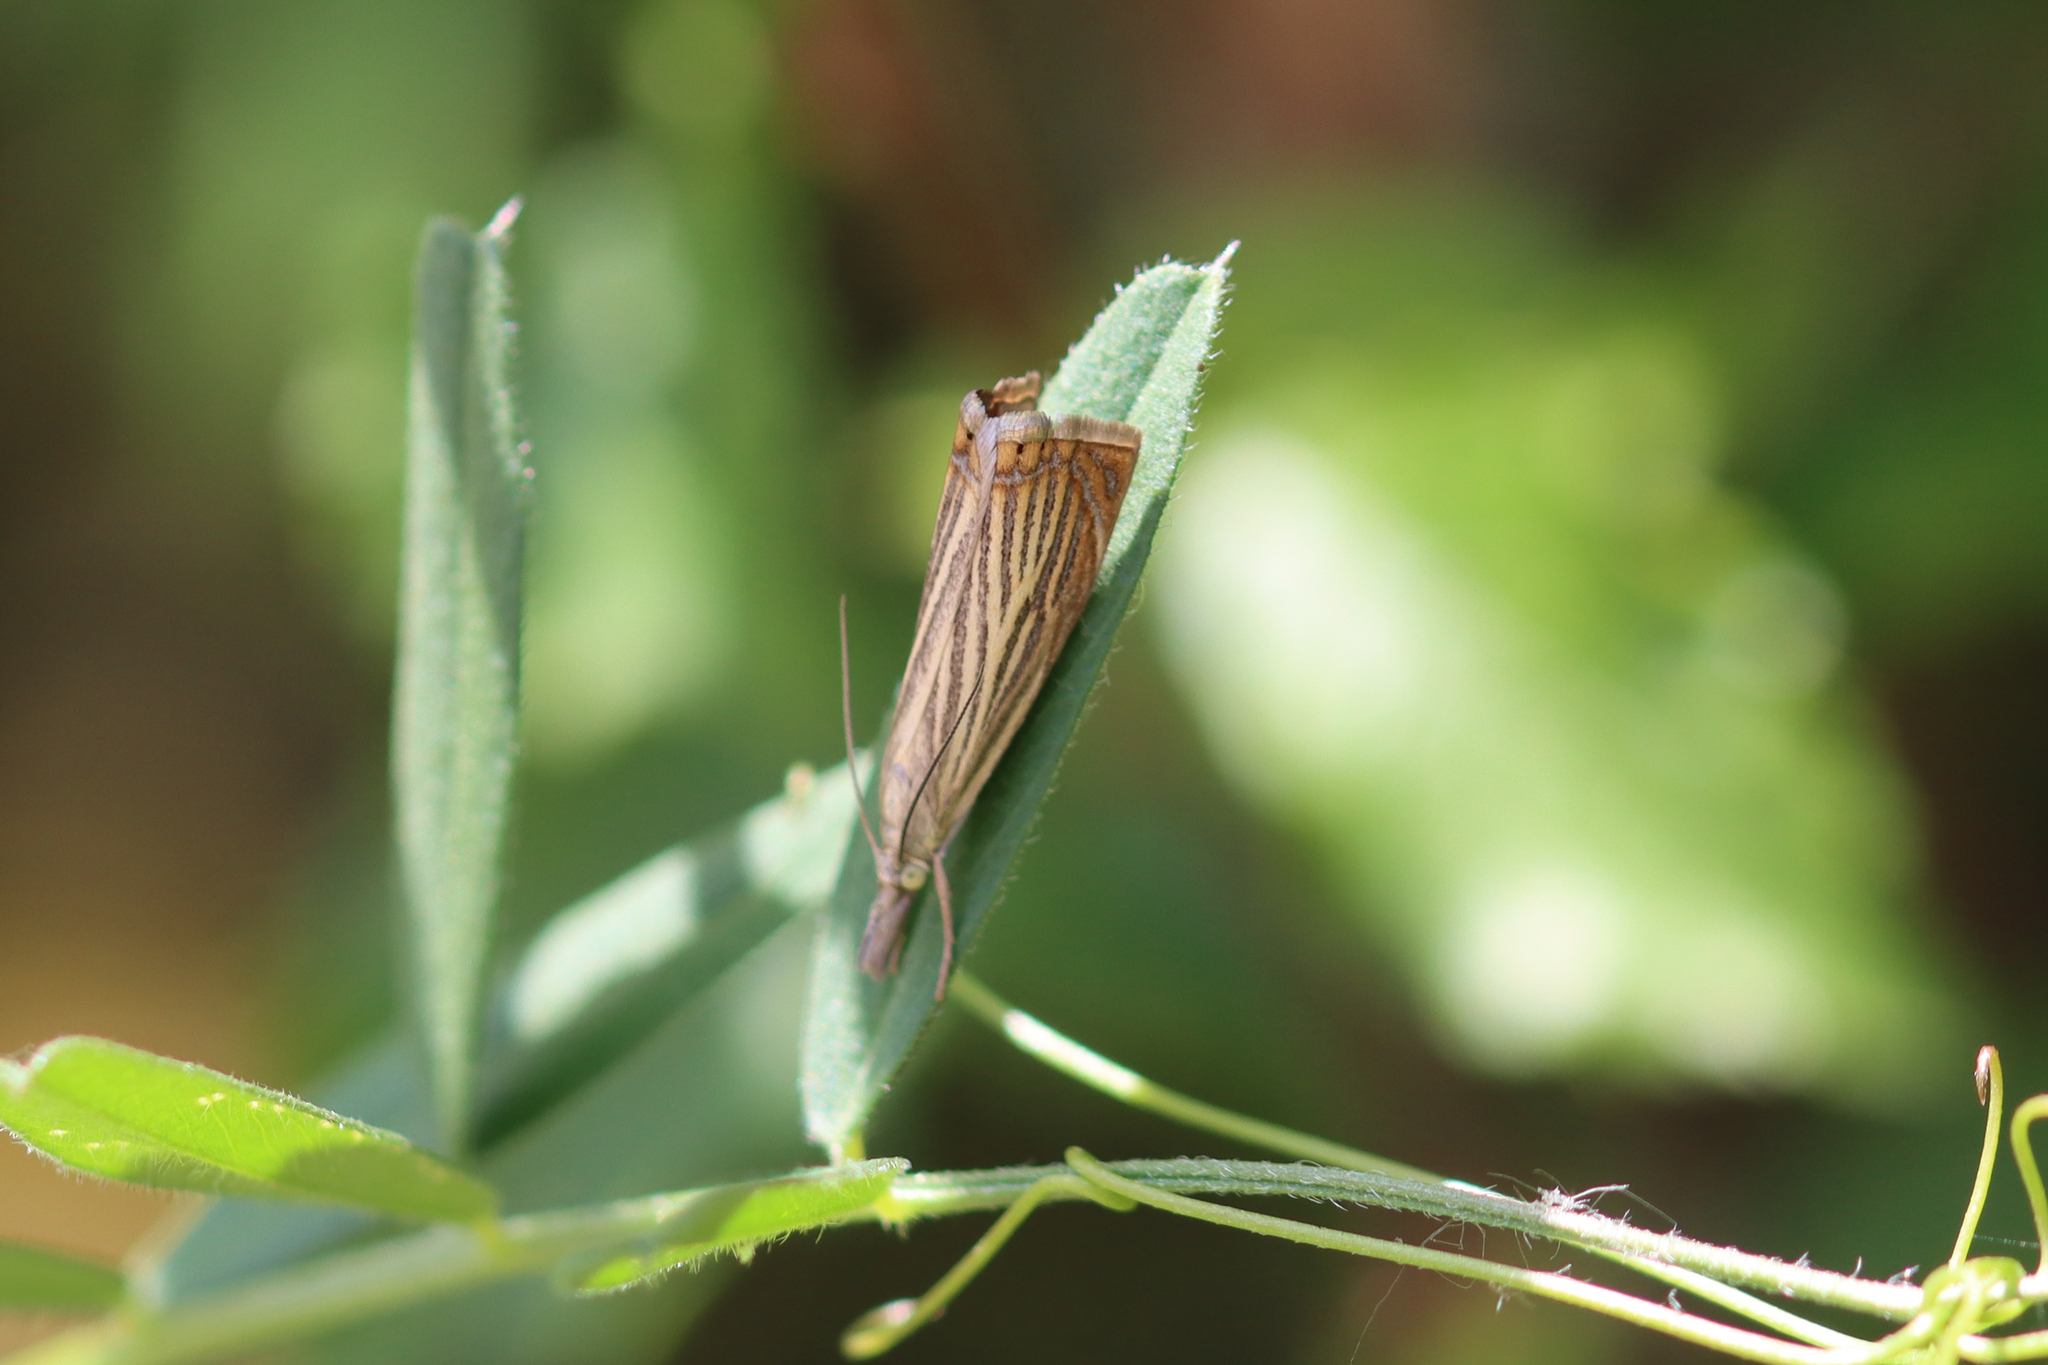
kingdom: Animalia
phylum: Arthropoda
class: Insecta
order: Lepidoptera
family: Crambidae
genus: Chrysoteuchia
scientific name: Chrysoteuchia culmella
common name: Garden grass-veneer
